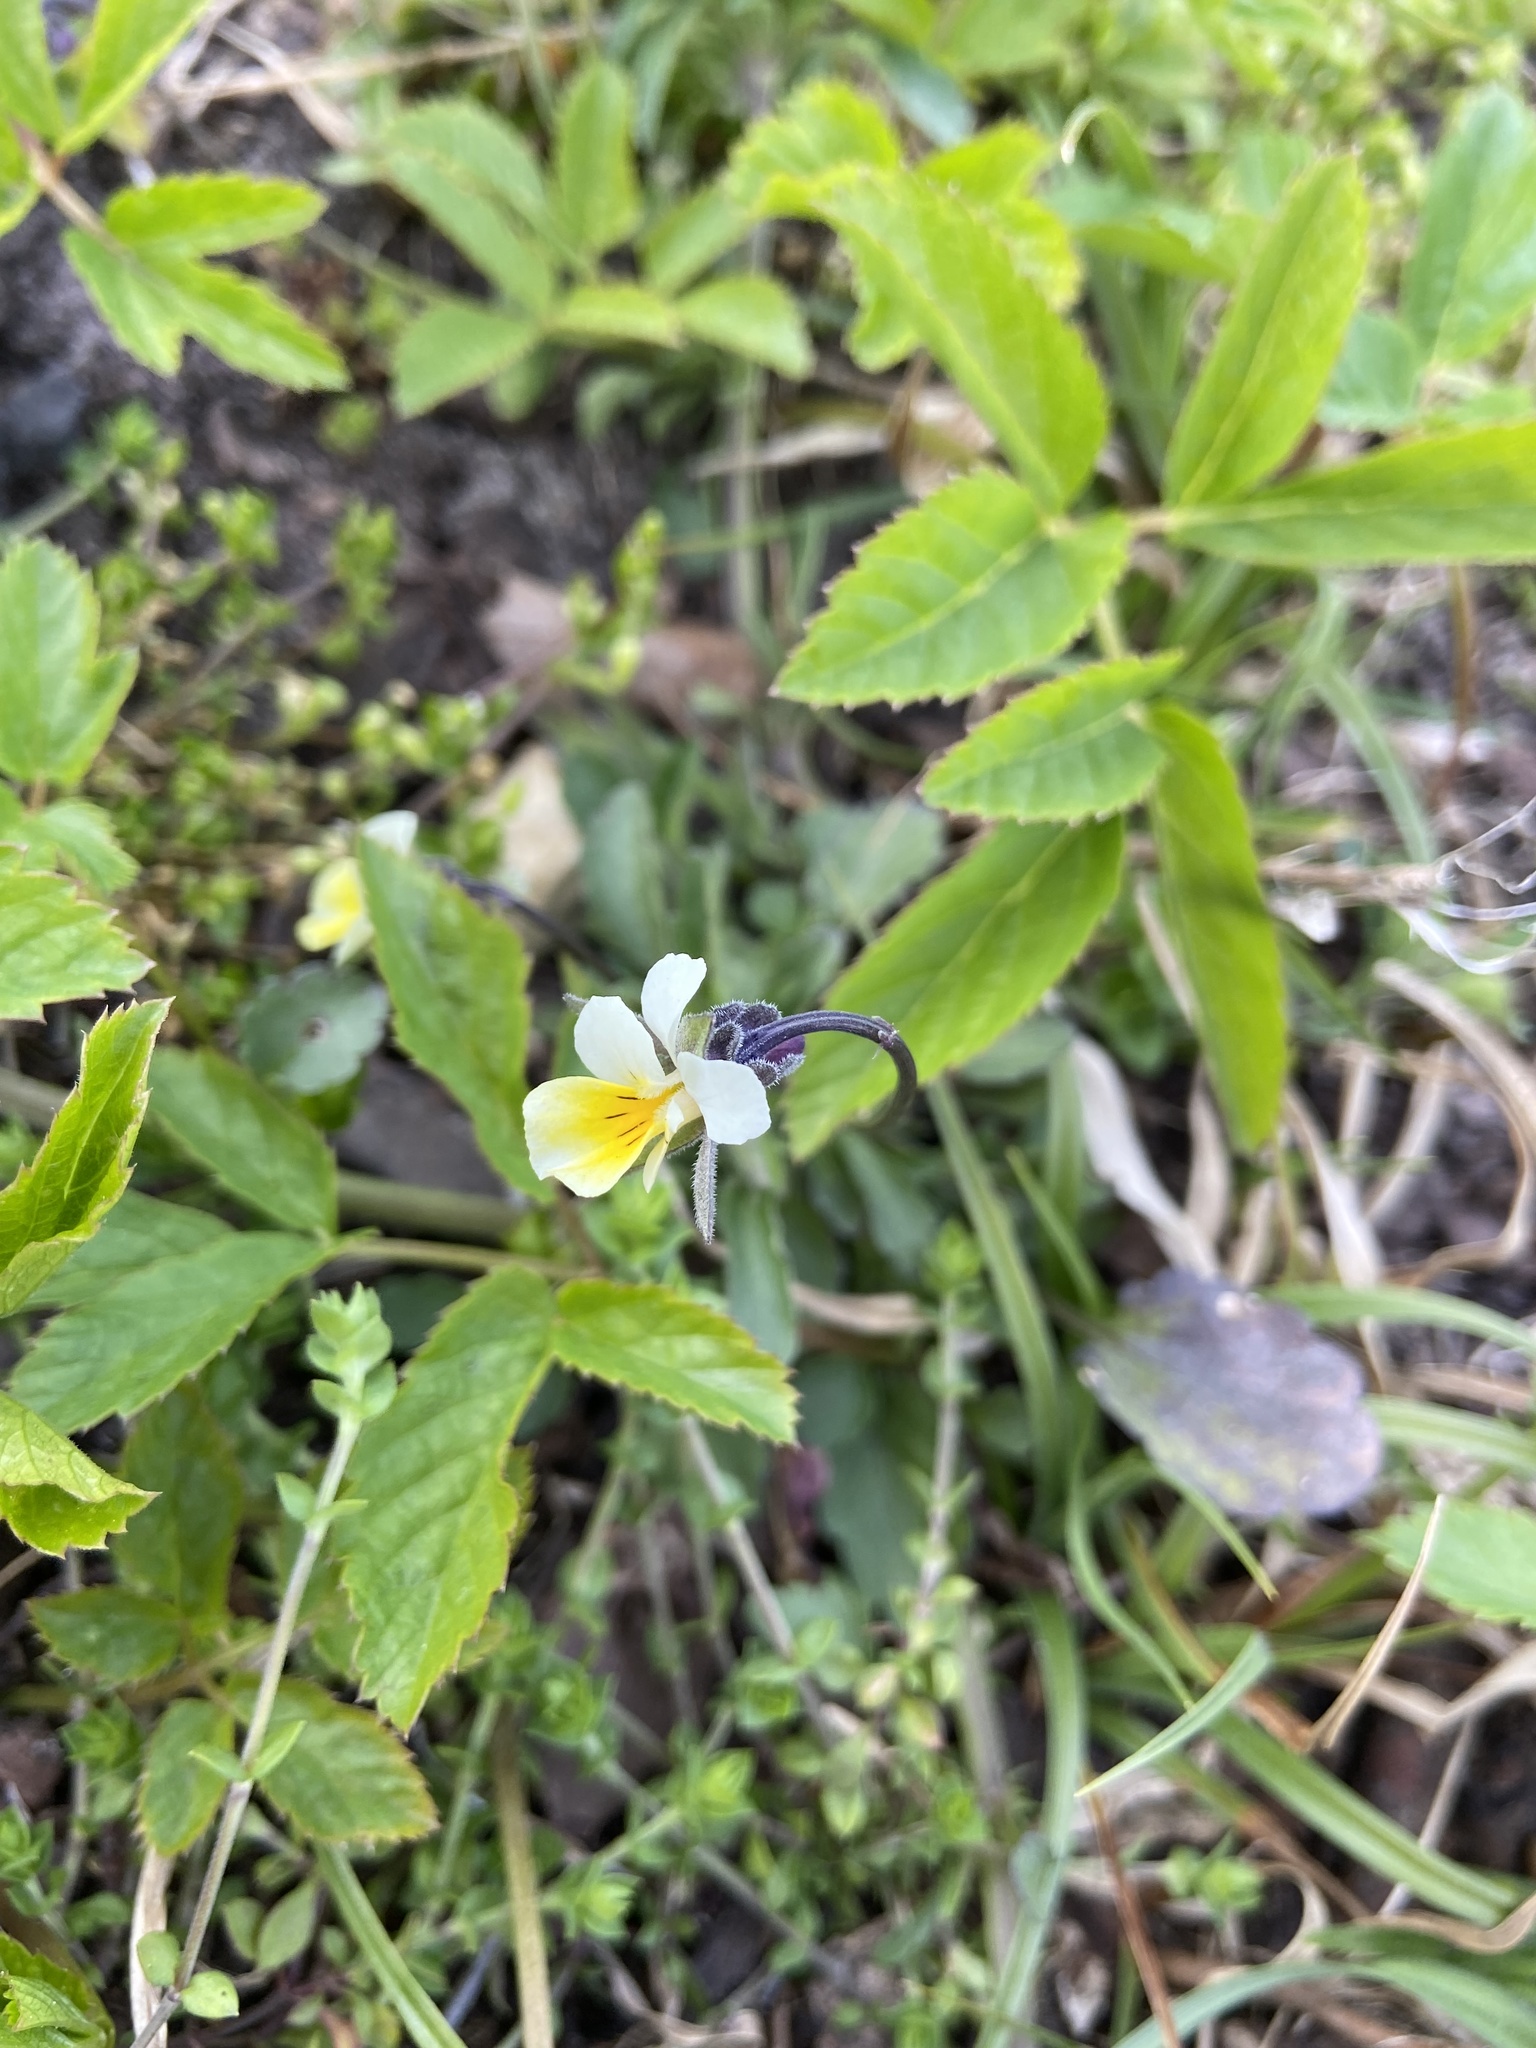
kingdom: Plantae
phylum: Tracheophyta
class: Magnoliopsida
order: Malpighiales
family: Violaceae
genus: Viola
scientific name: Viola arvensis
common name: Field pansy
